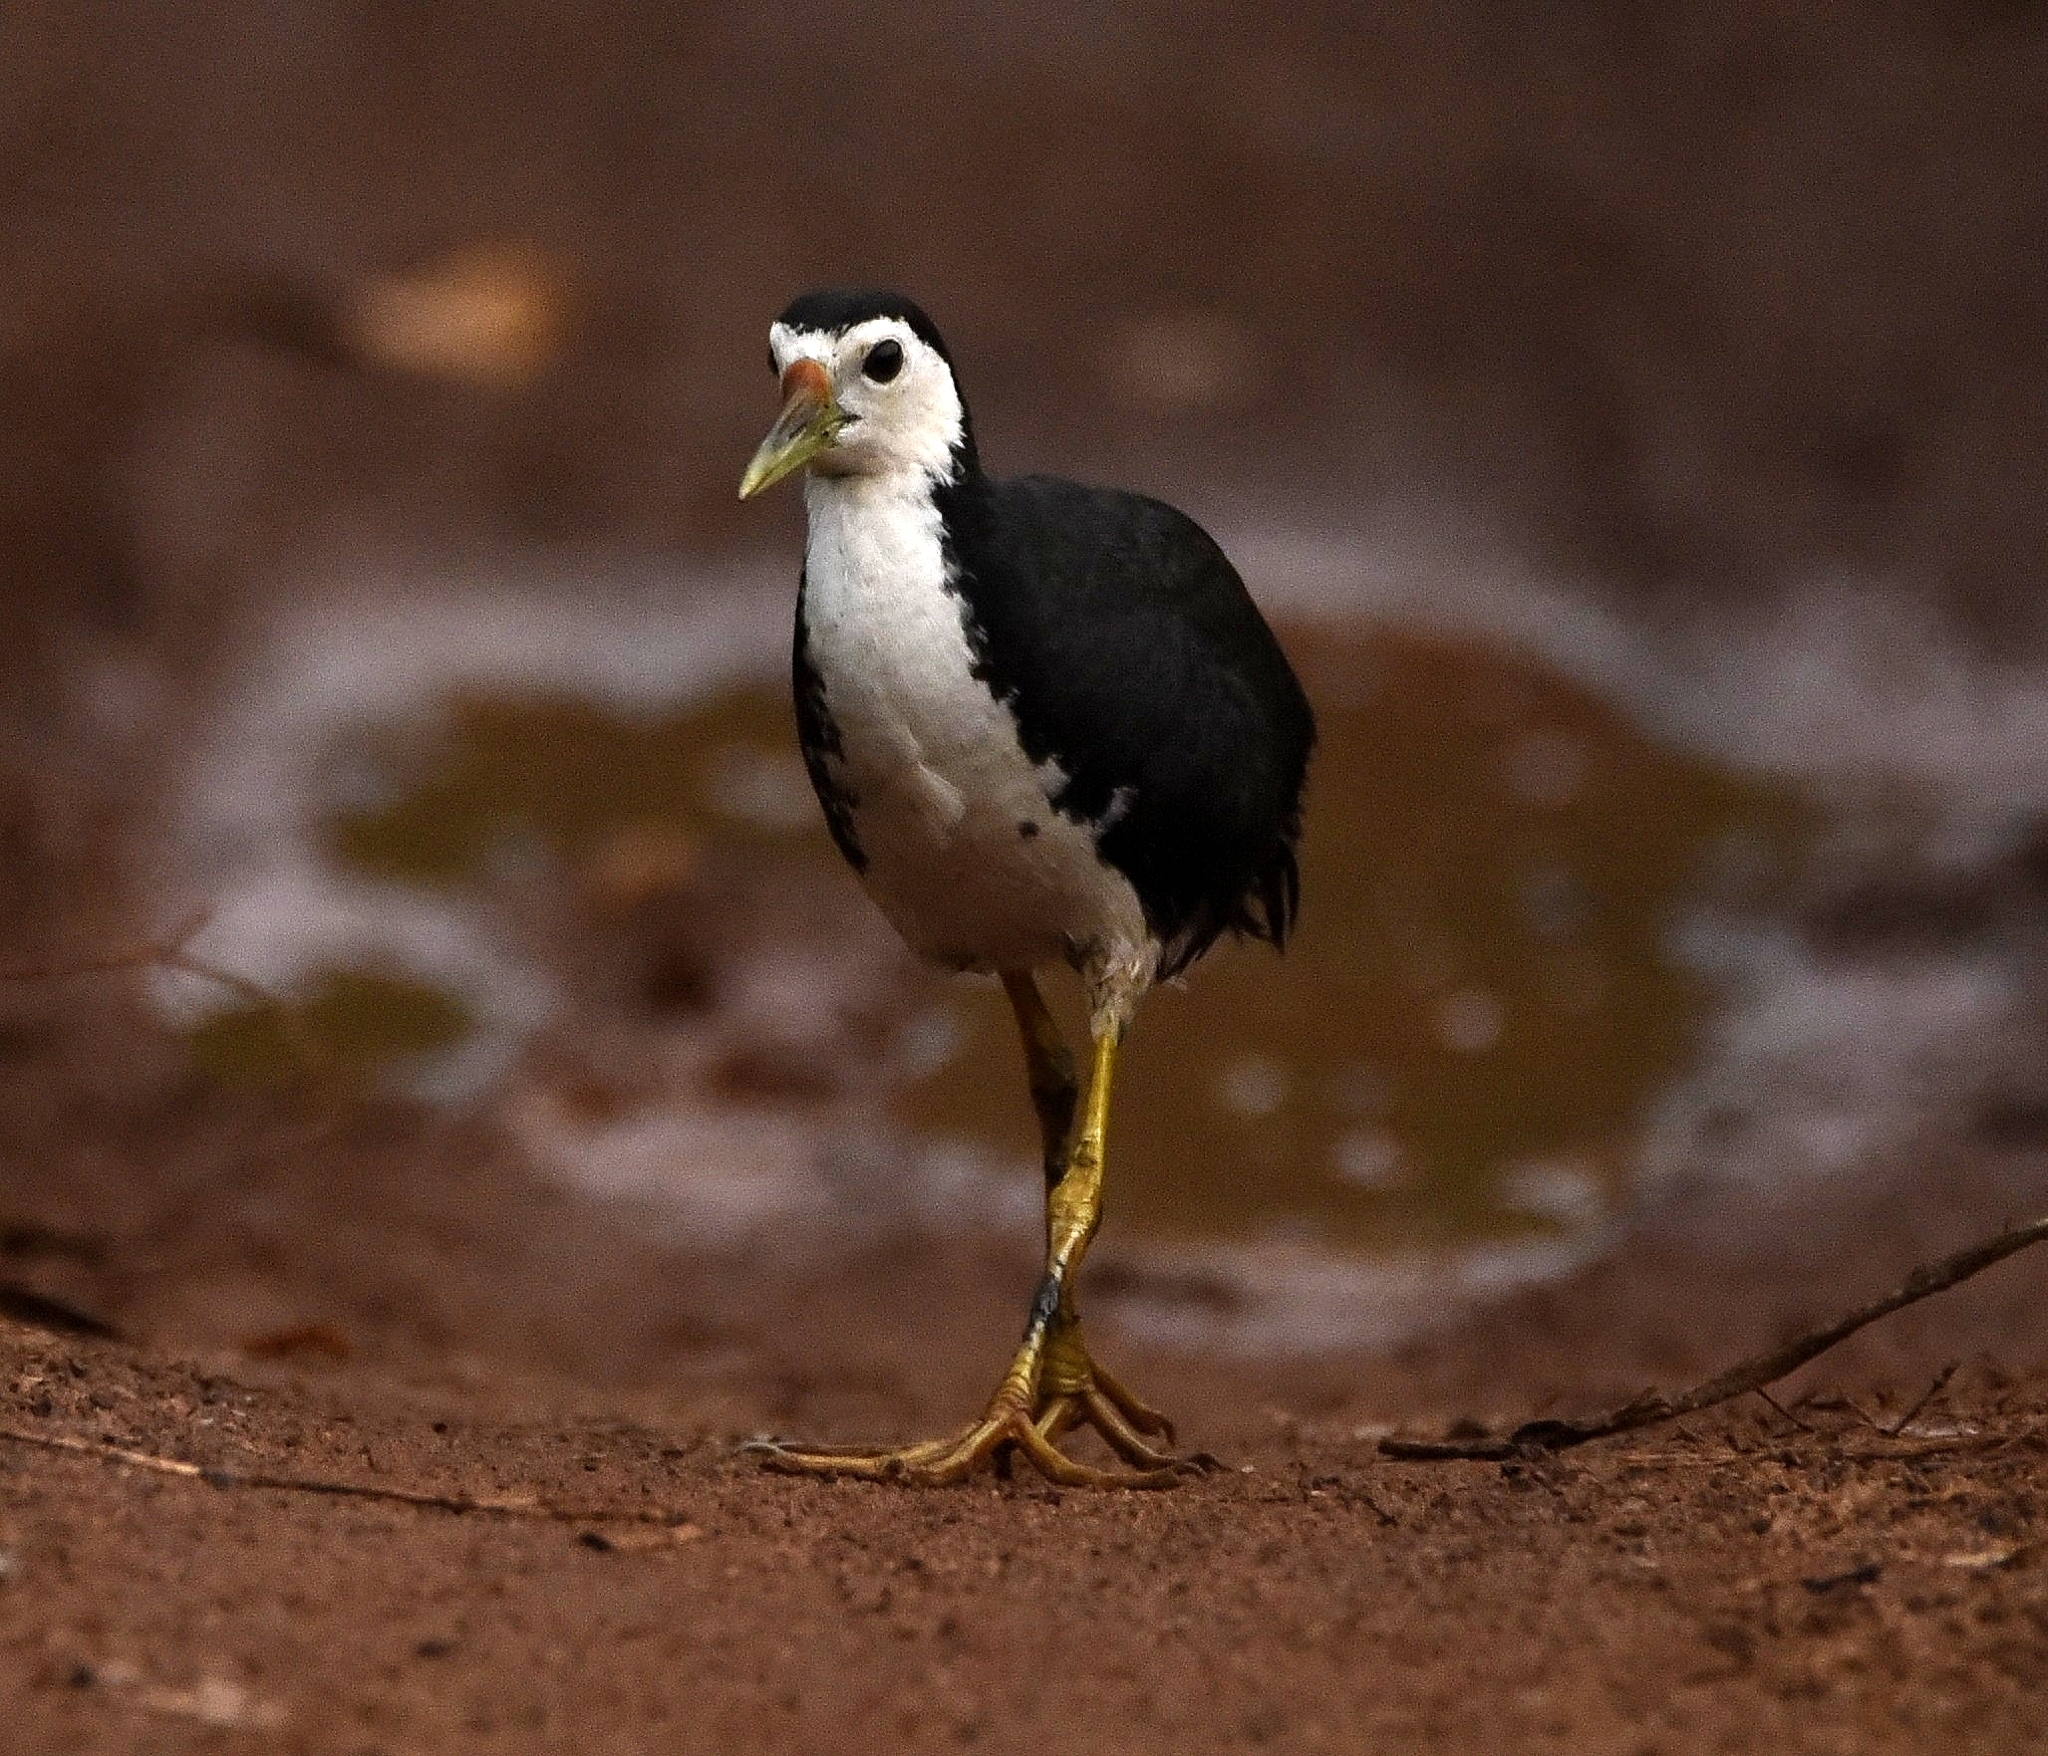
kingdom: Animalia
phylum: Chordata
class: Aves
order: Gruiformes
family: Rallidae
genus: Amaurornis
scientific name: Amaurornis phoenicurus
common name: White-breasted waterhen
